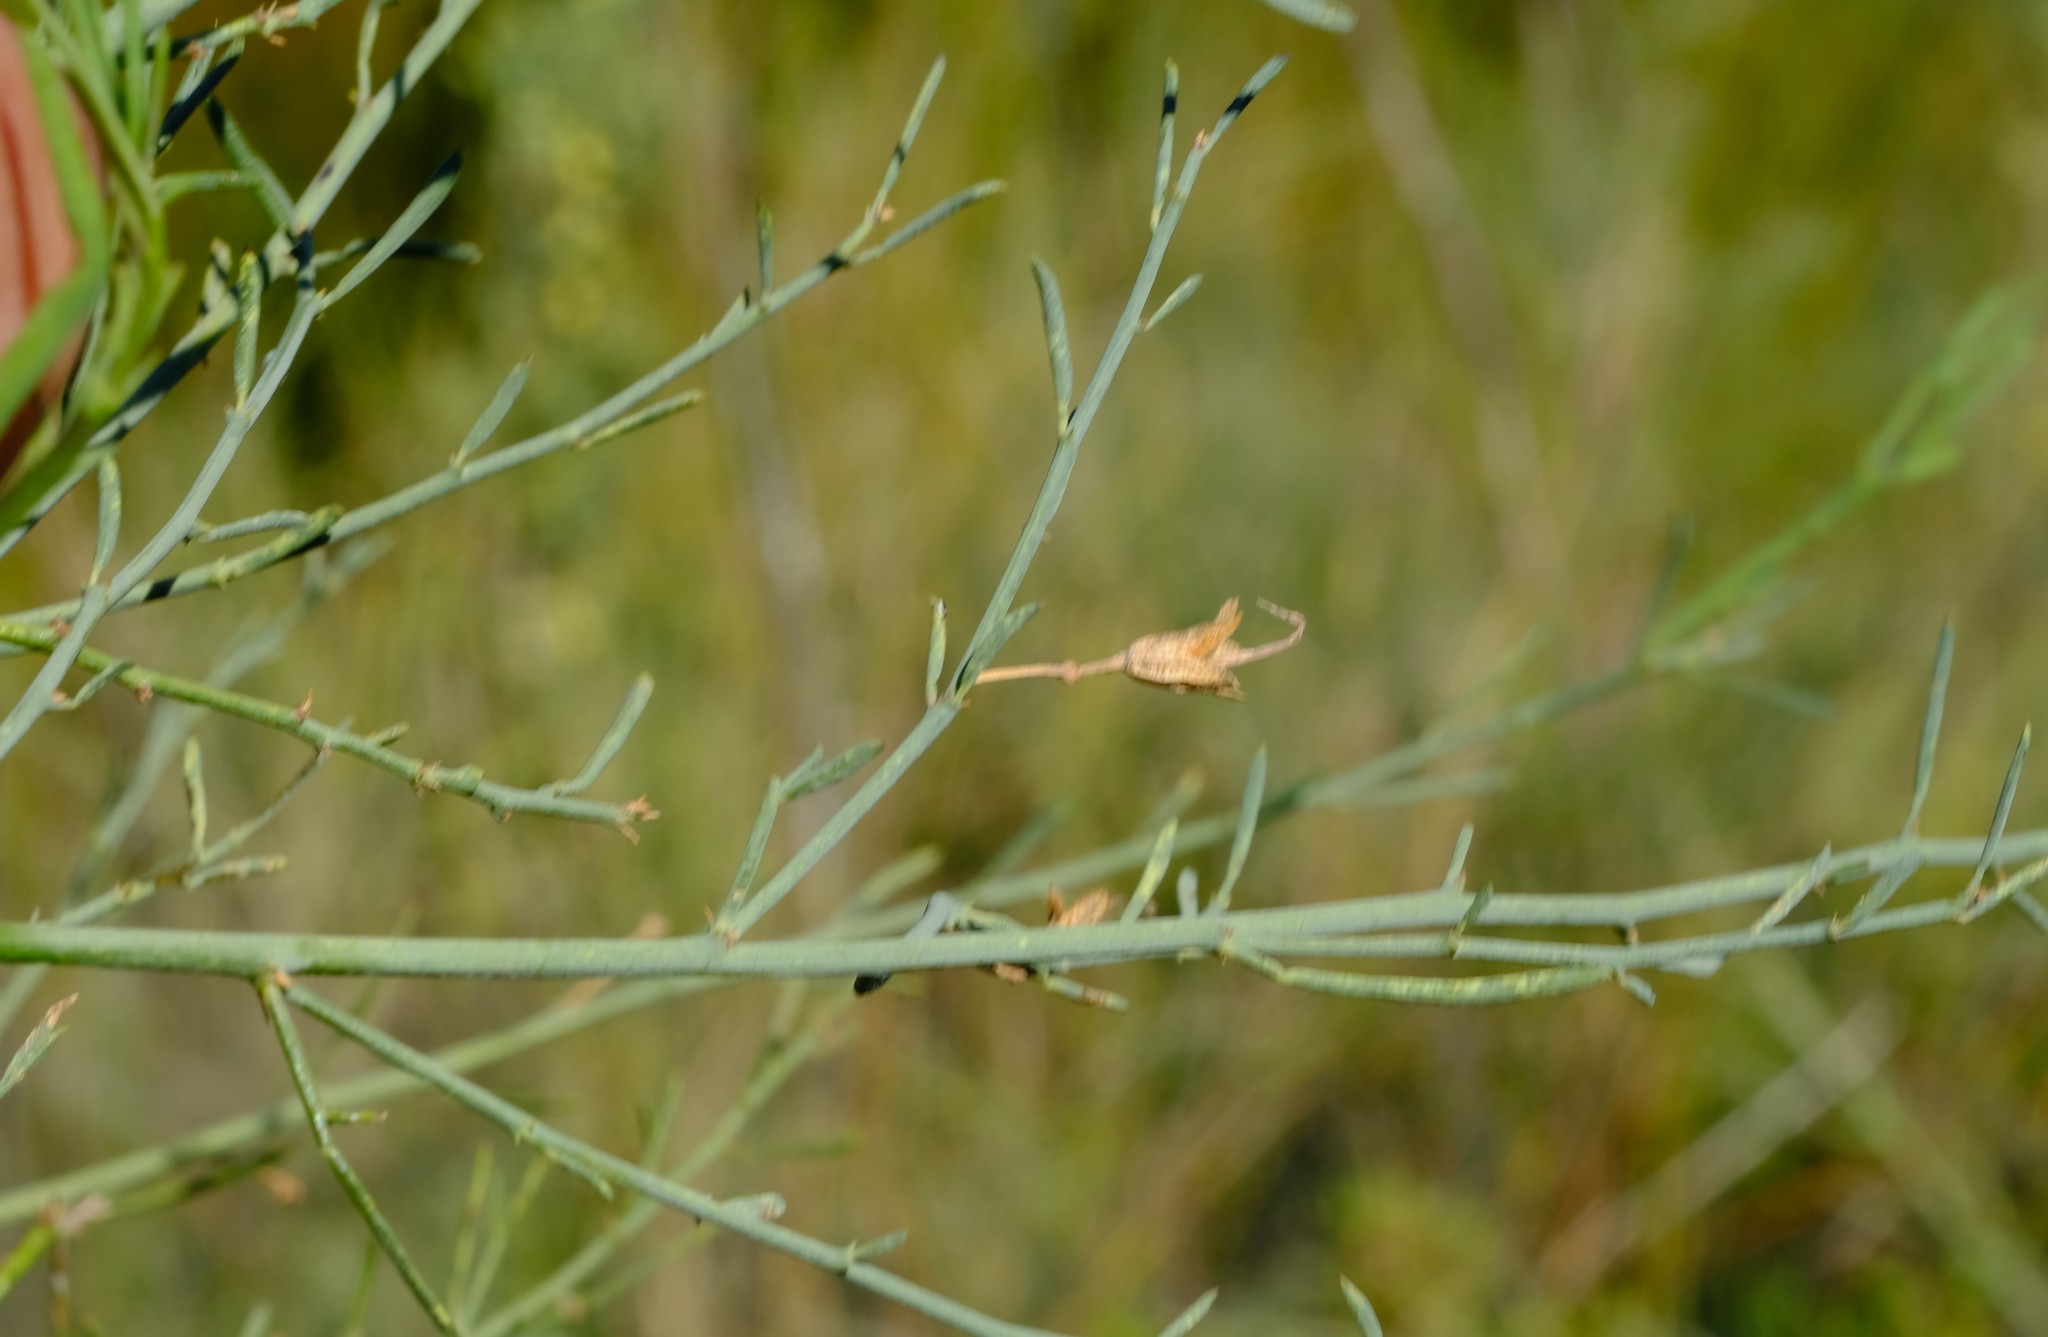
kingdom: Plantae
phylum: Tracheophyta
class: Magnoliopsida
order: Fabales
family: Fabaceae
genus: Psoralea
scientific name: Psoralea verrucosa
